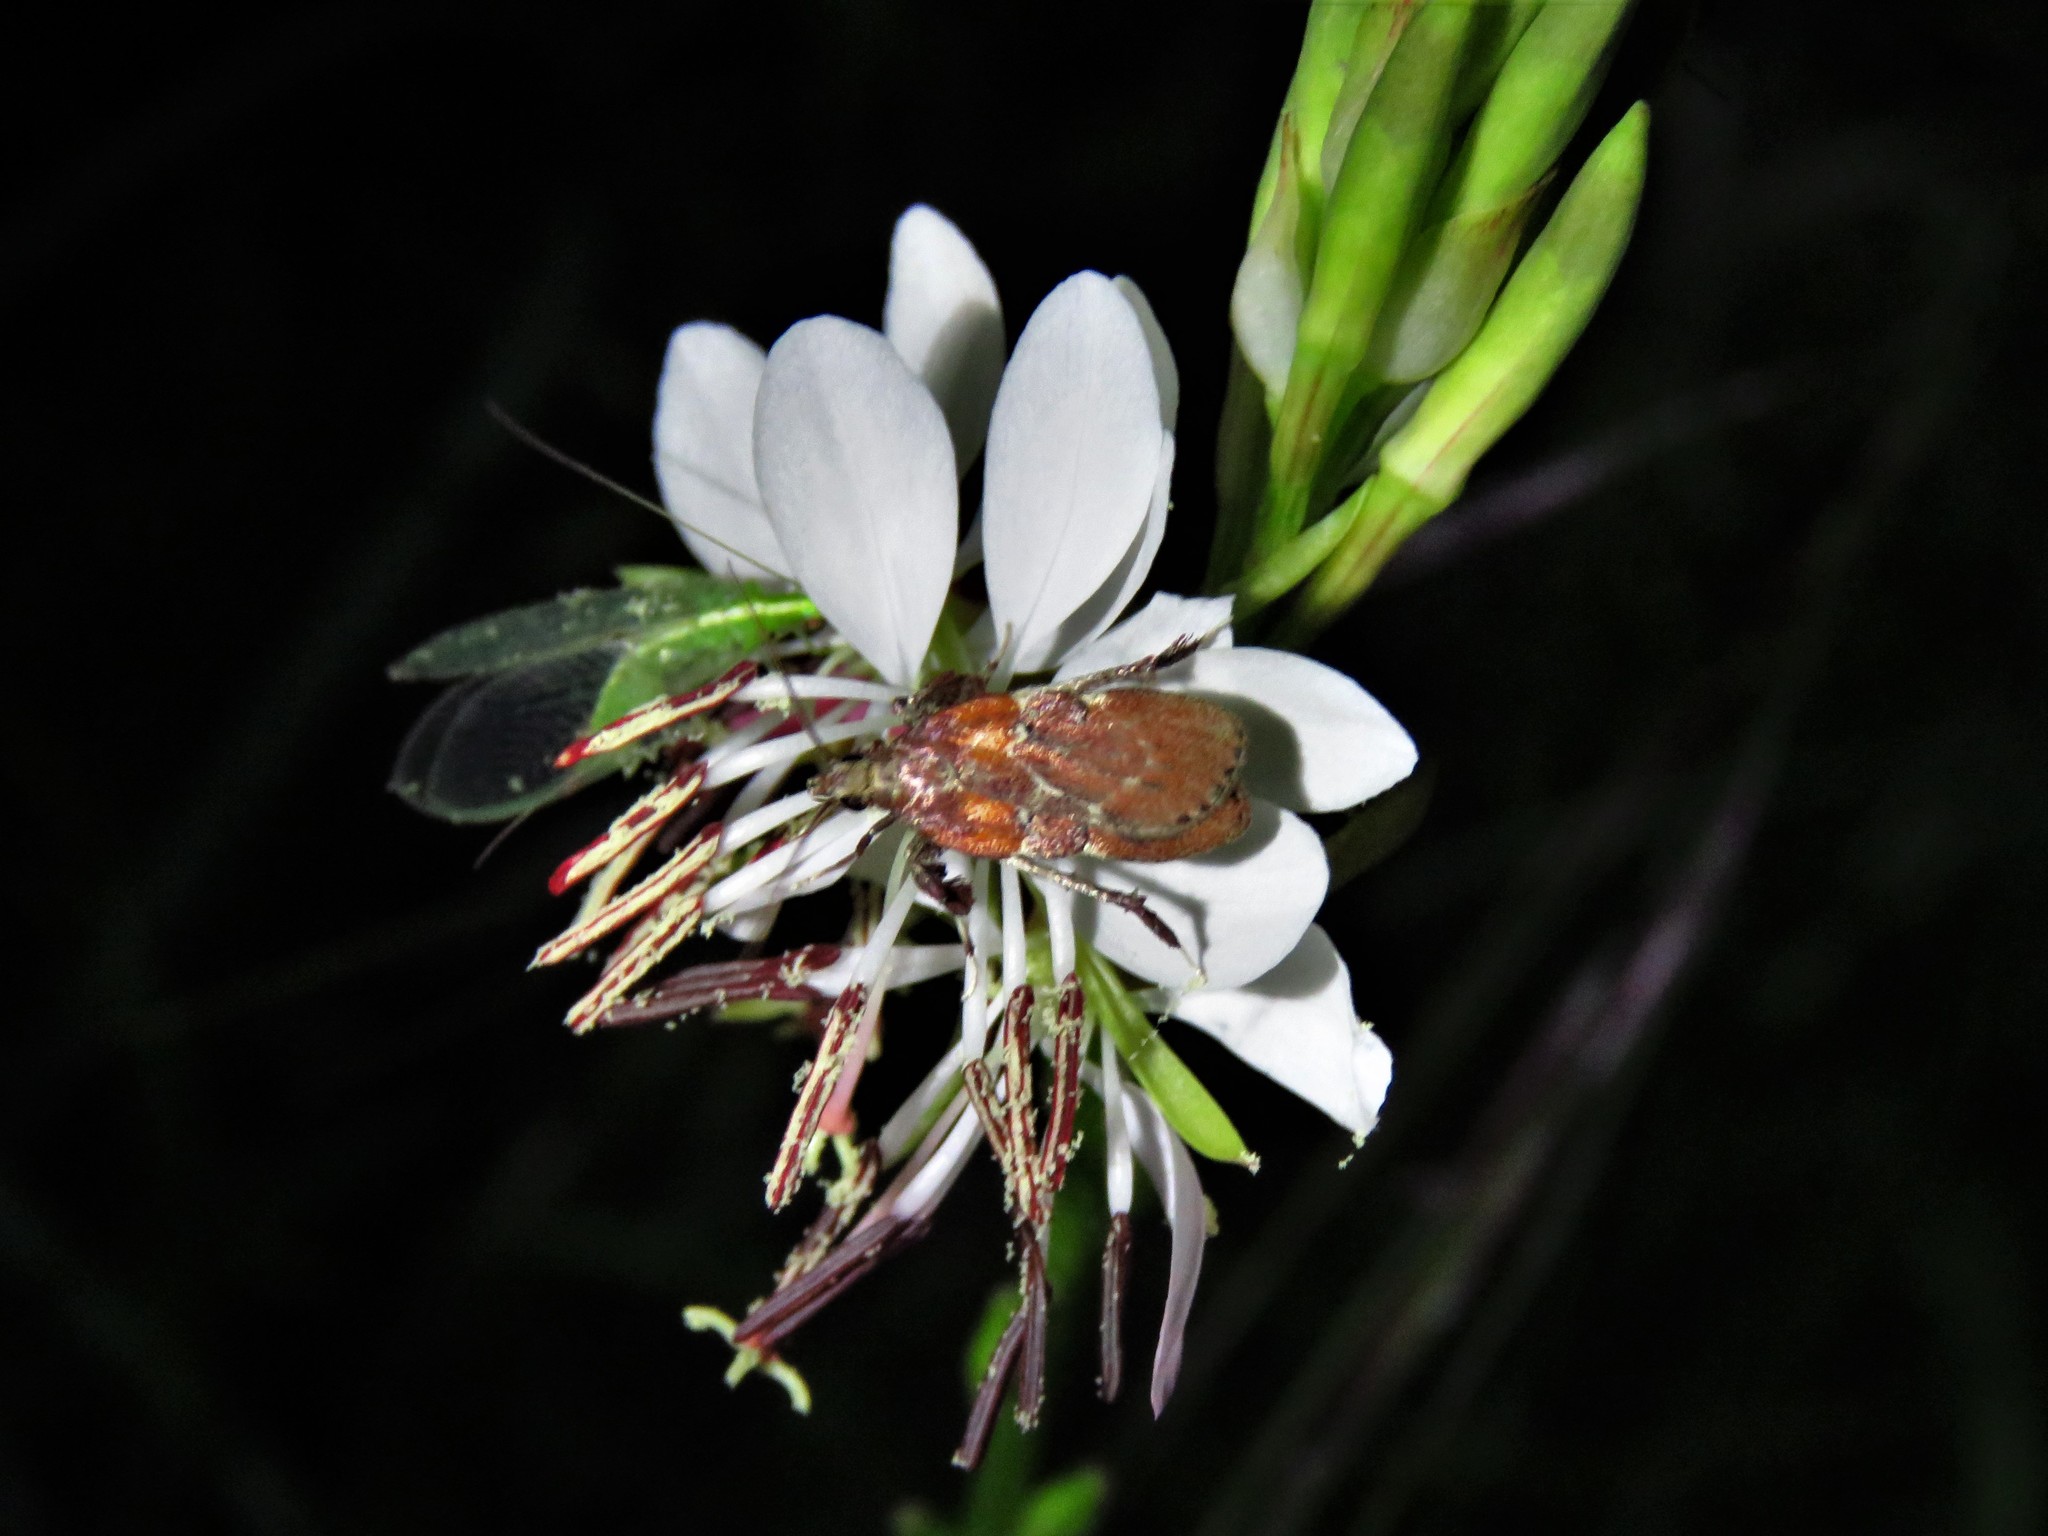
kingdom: Animalia
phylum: Arthropoda
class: Insecta
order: Lepidoptera
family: Pyralidae
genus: Galasa
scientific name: Galasa nigrinodis
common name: Boxwood leaftier moth
